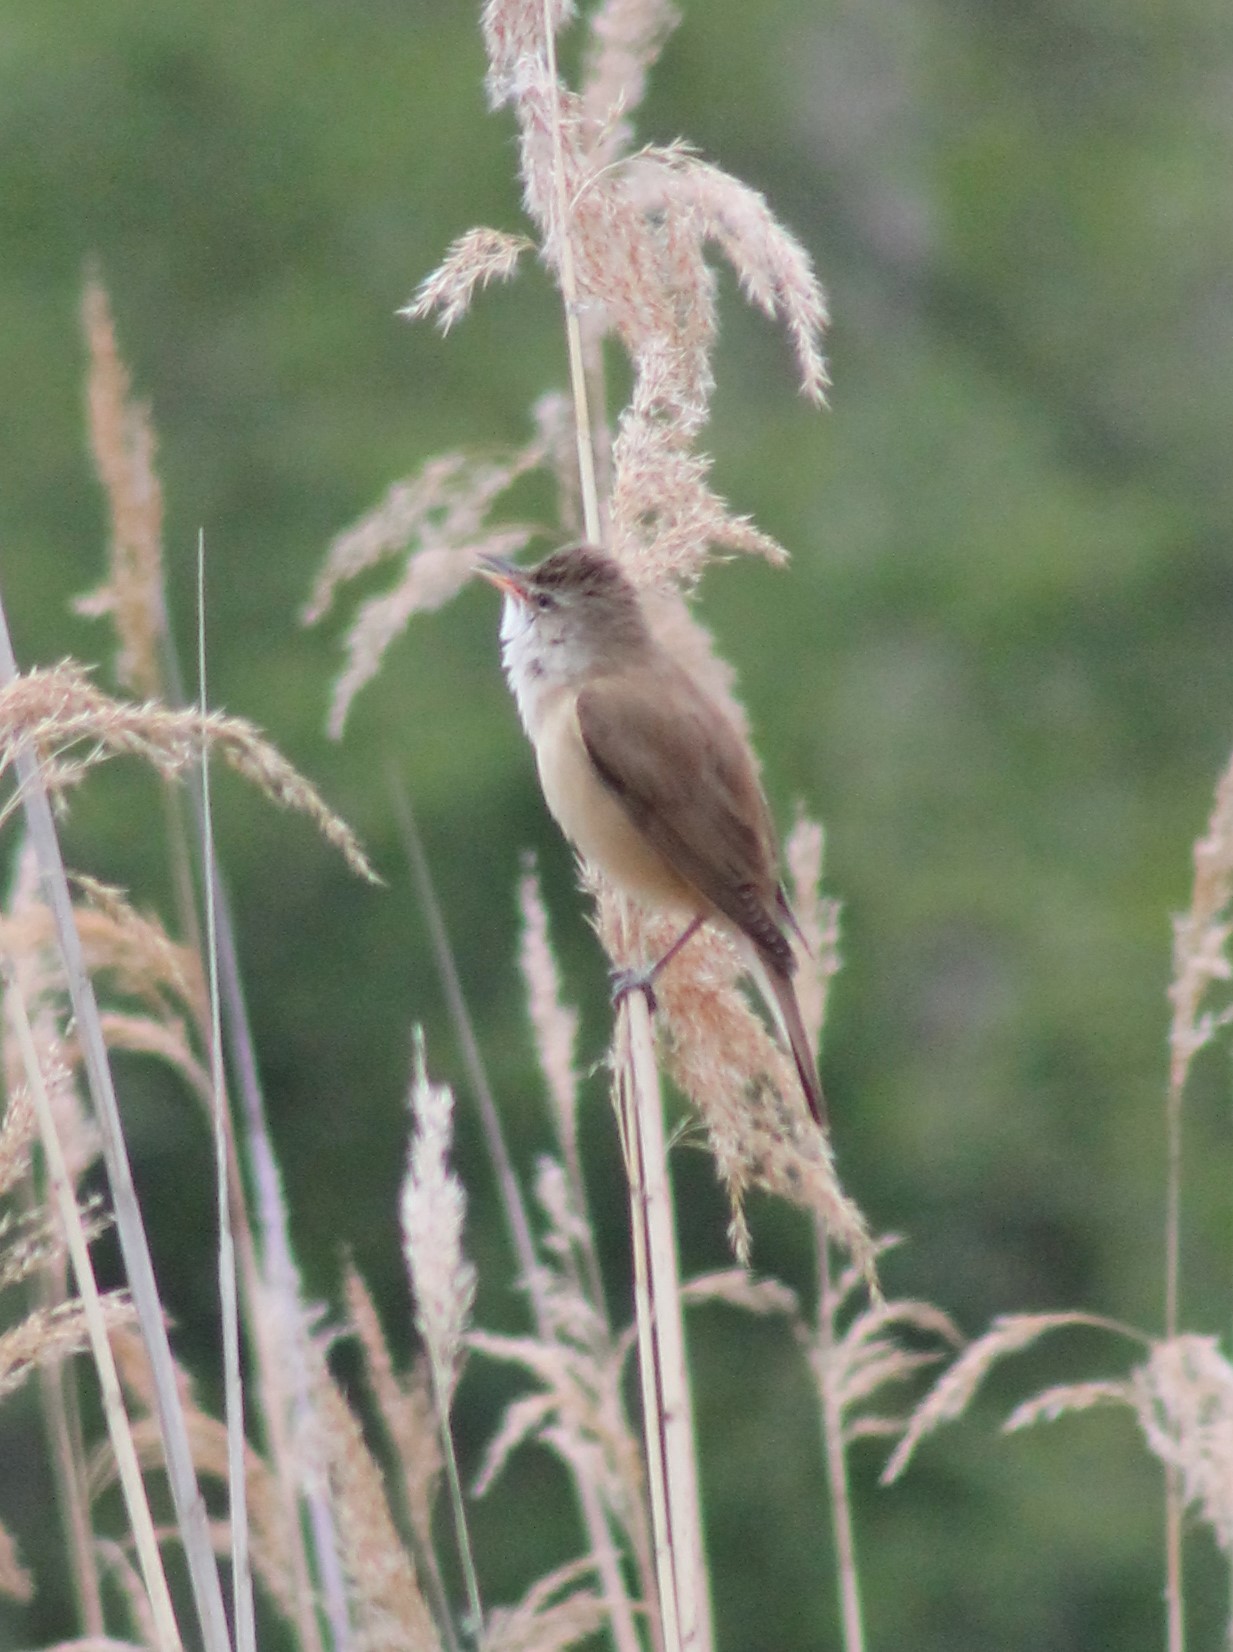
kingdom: Animalia
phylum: Chordata
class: Aves
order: Passeriformes
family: Acrocephalidae
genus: Acrocephalus
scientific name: Acrocephalus arundinaceus
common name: Great reed warbler
